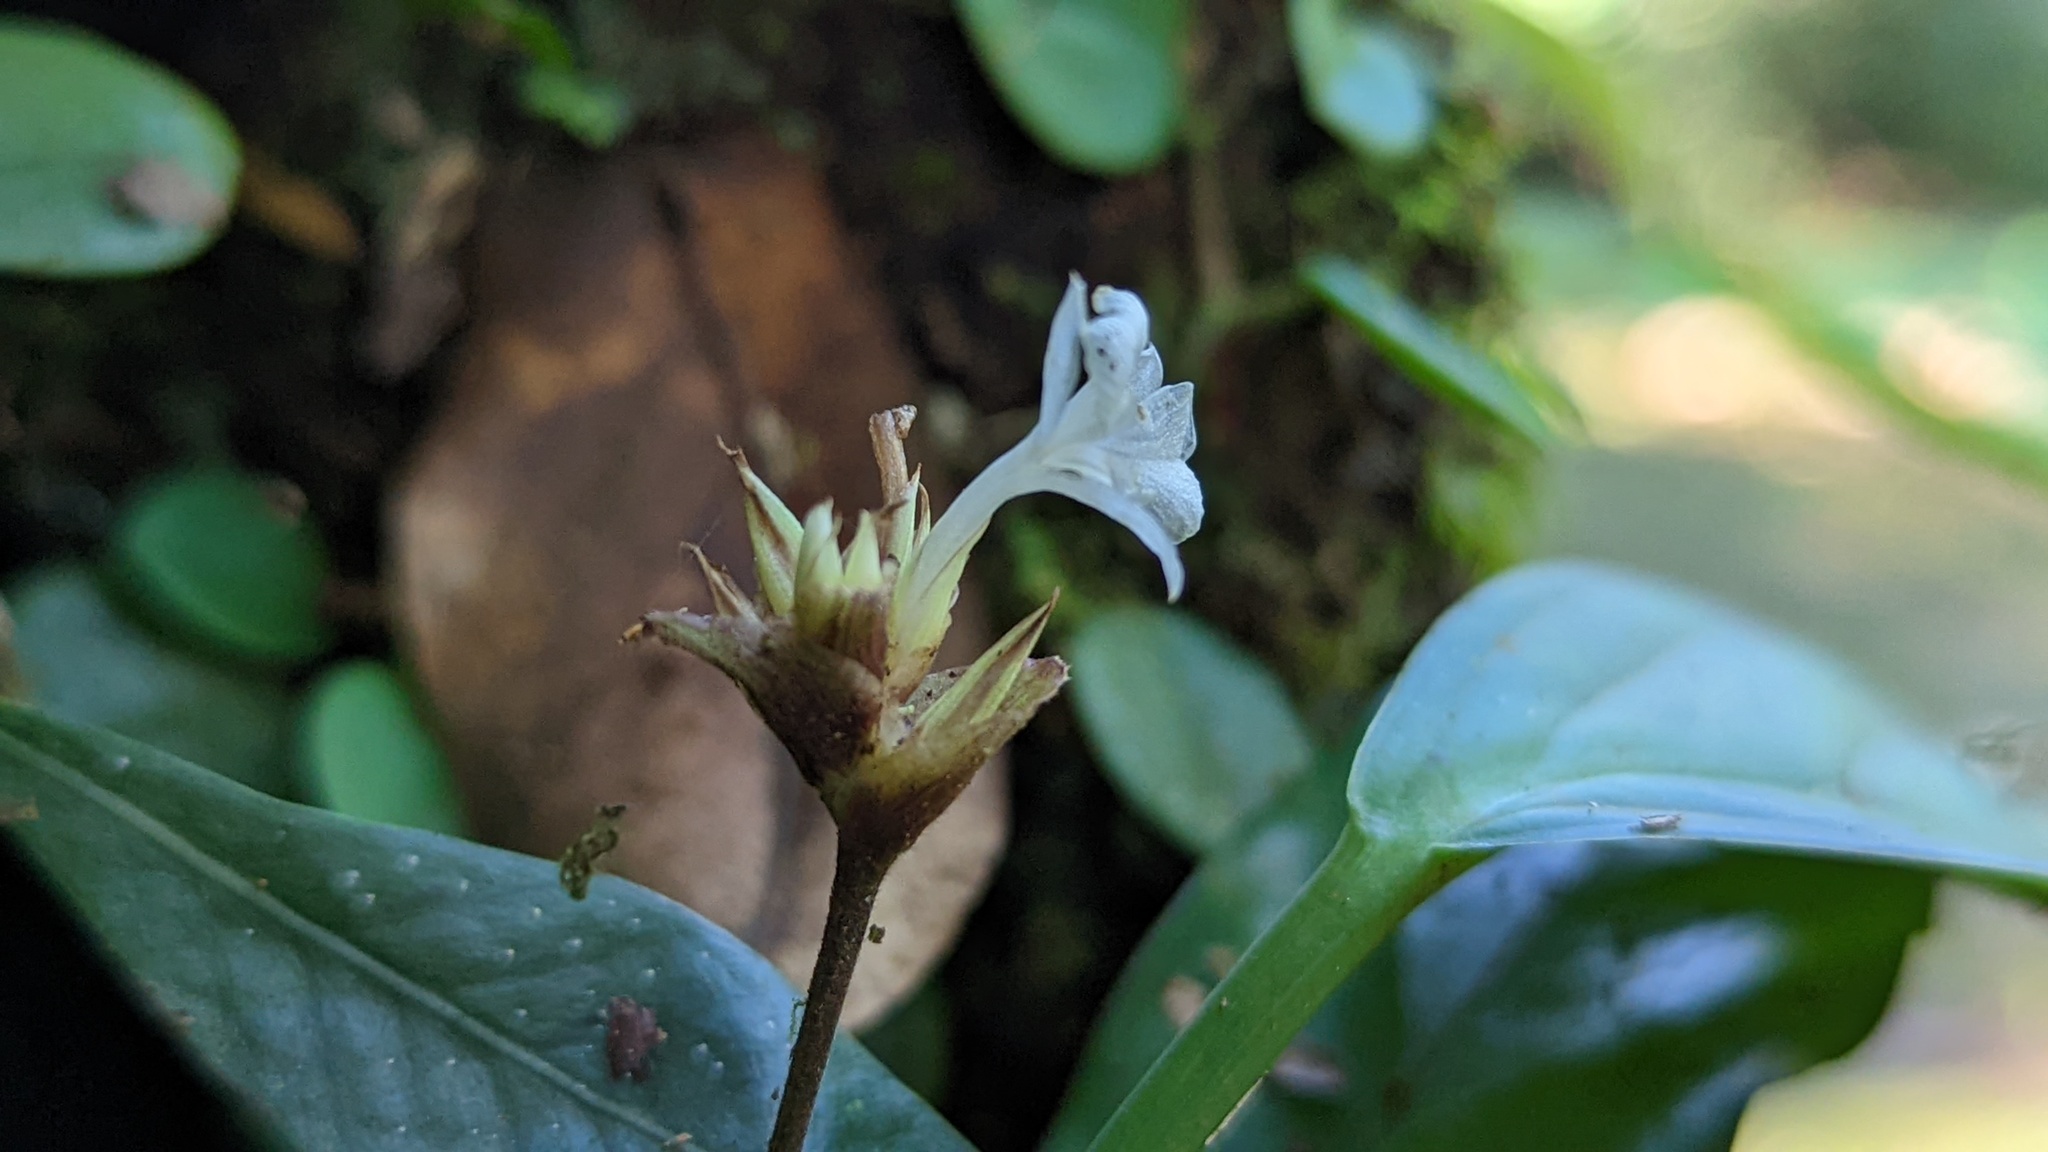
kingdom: Plantae
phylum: Tracheophyta
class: Liliopsida
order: Zingiberales
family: Marantaceae
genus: Goeppertia
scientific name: Goeppertia micans
